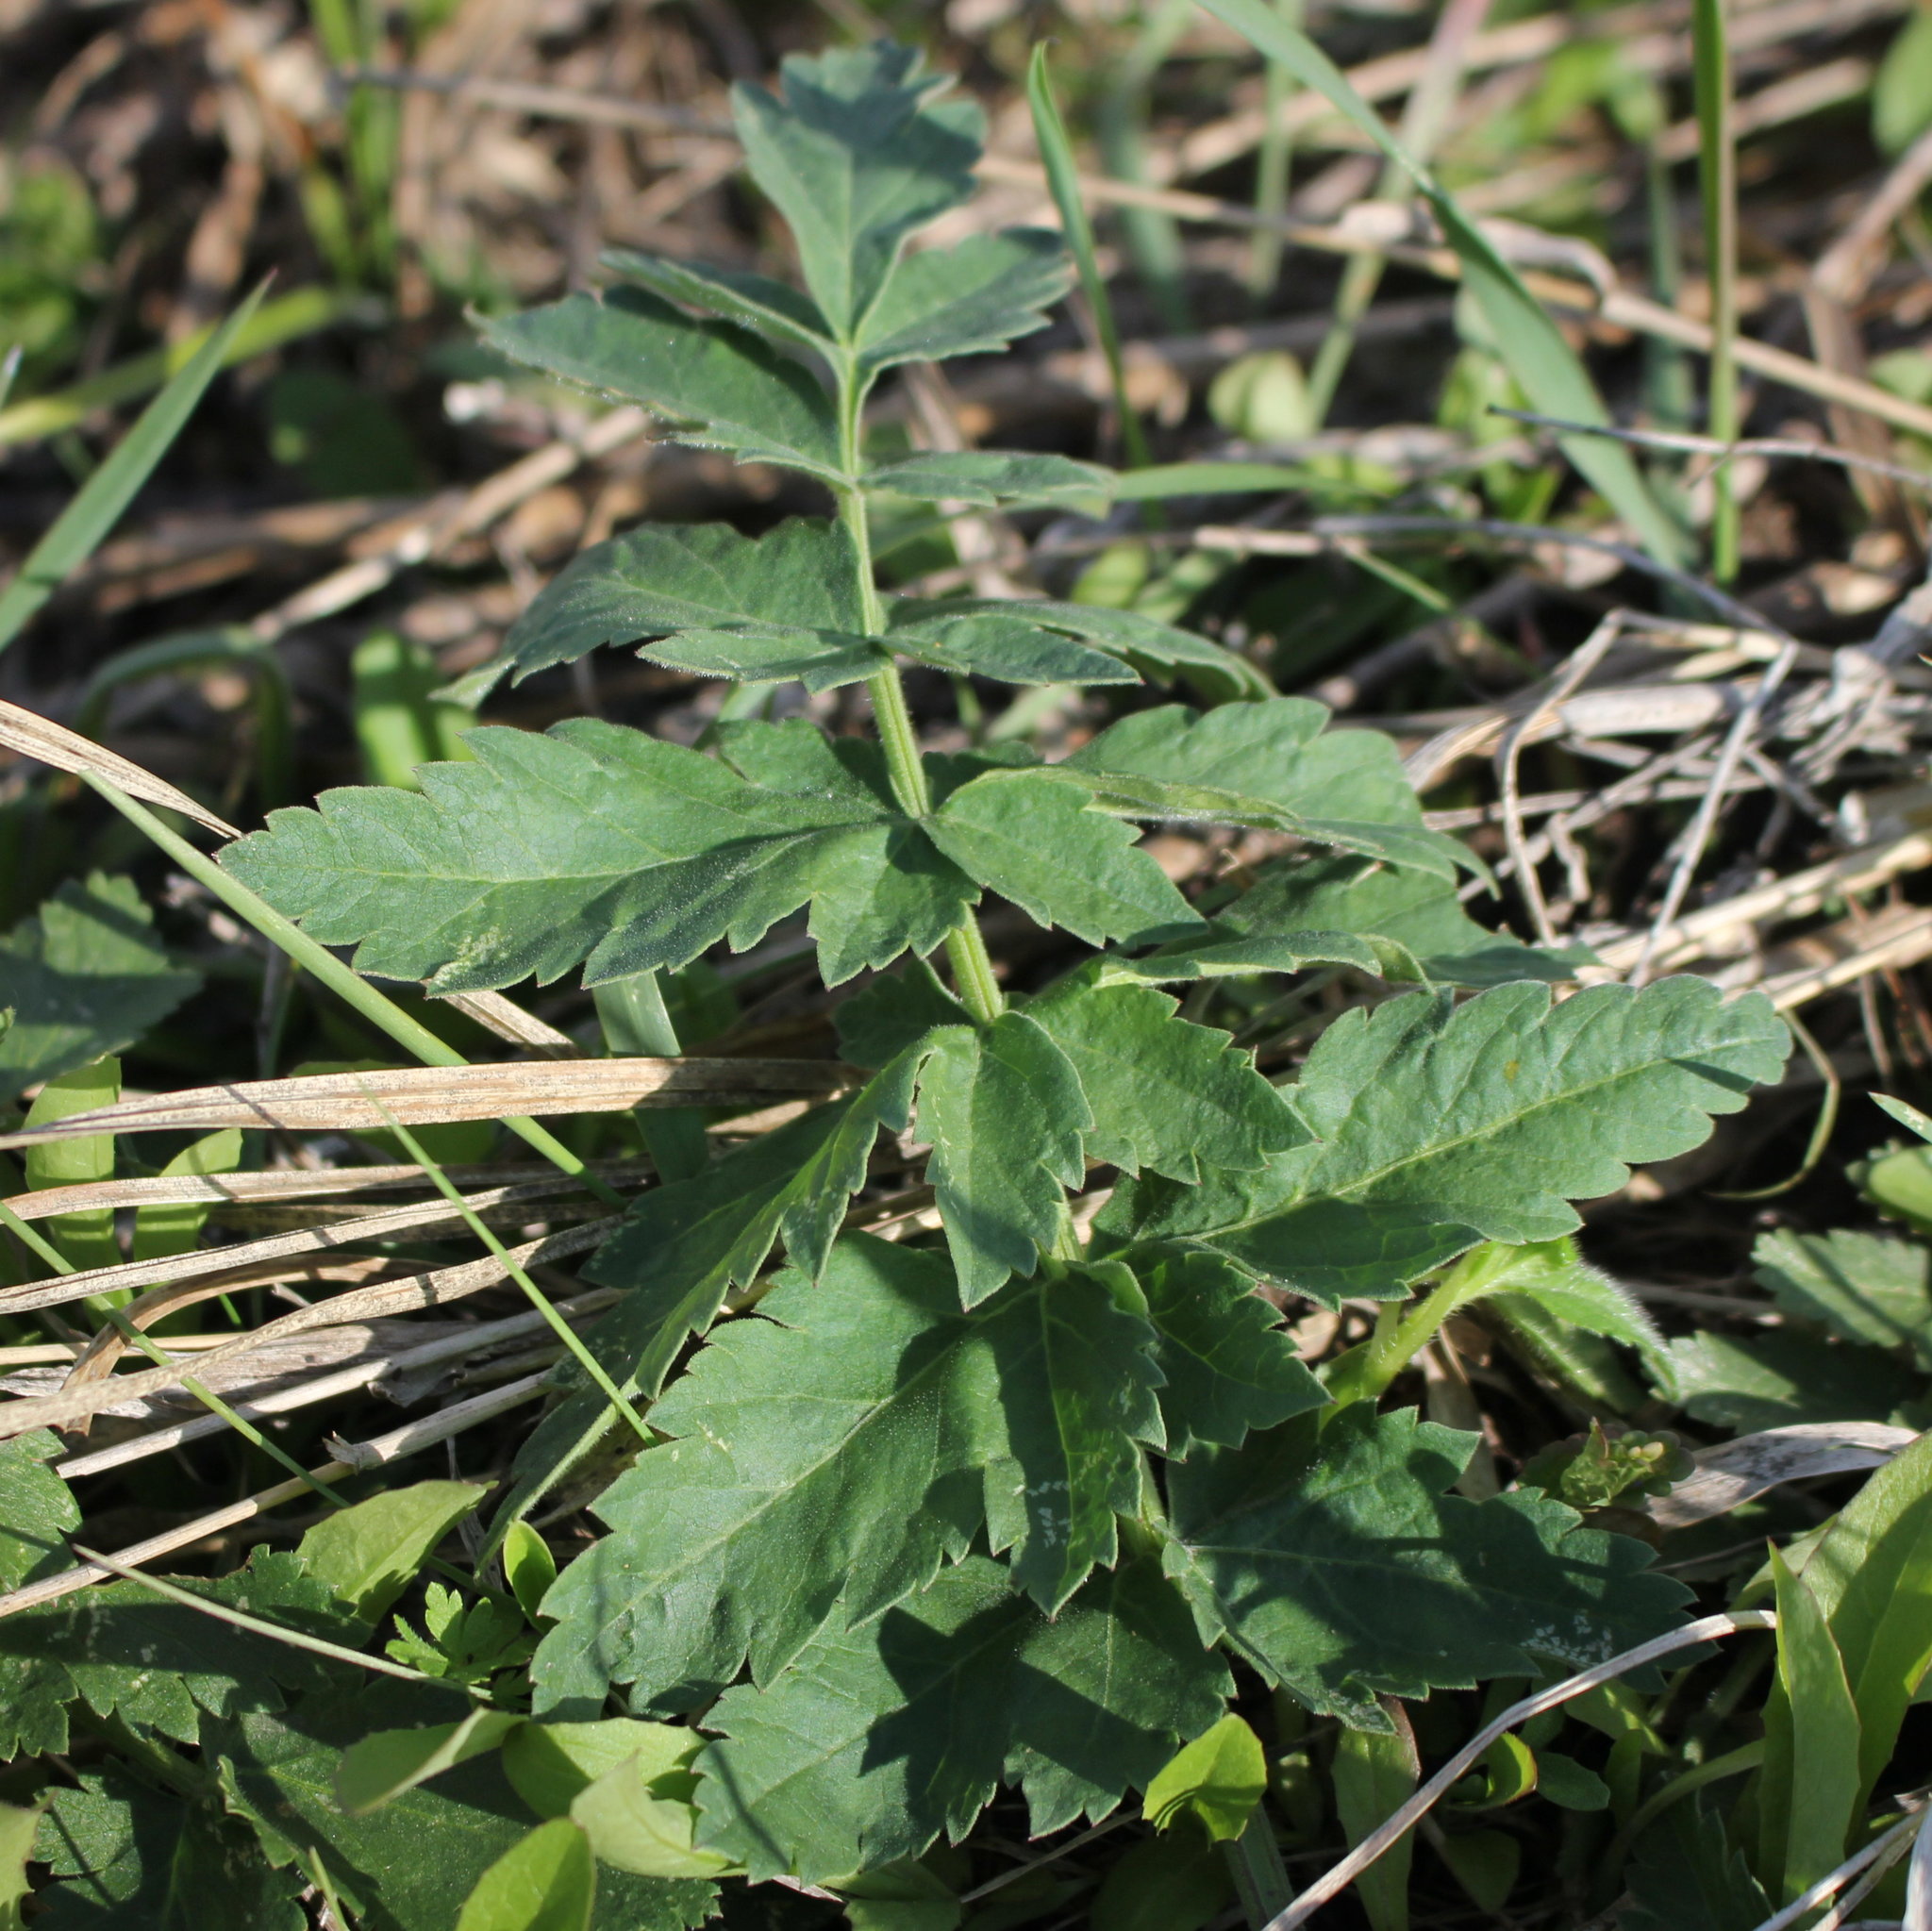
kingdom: Plantae
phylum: Tracheophyta
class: Magnoliopsida
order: Apiales
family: Apiaceae
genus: Pastinaca
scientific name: Pastinaca sativa
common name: Wild parsnip
